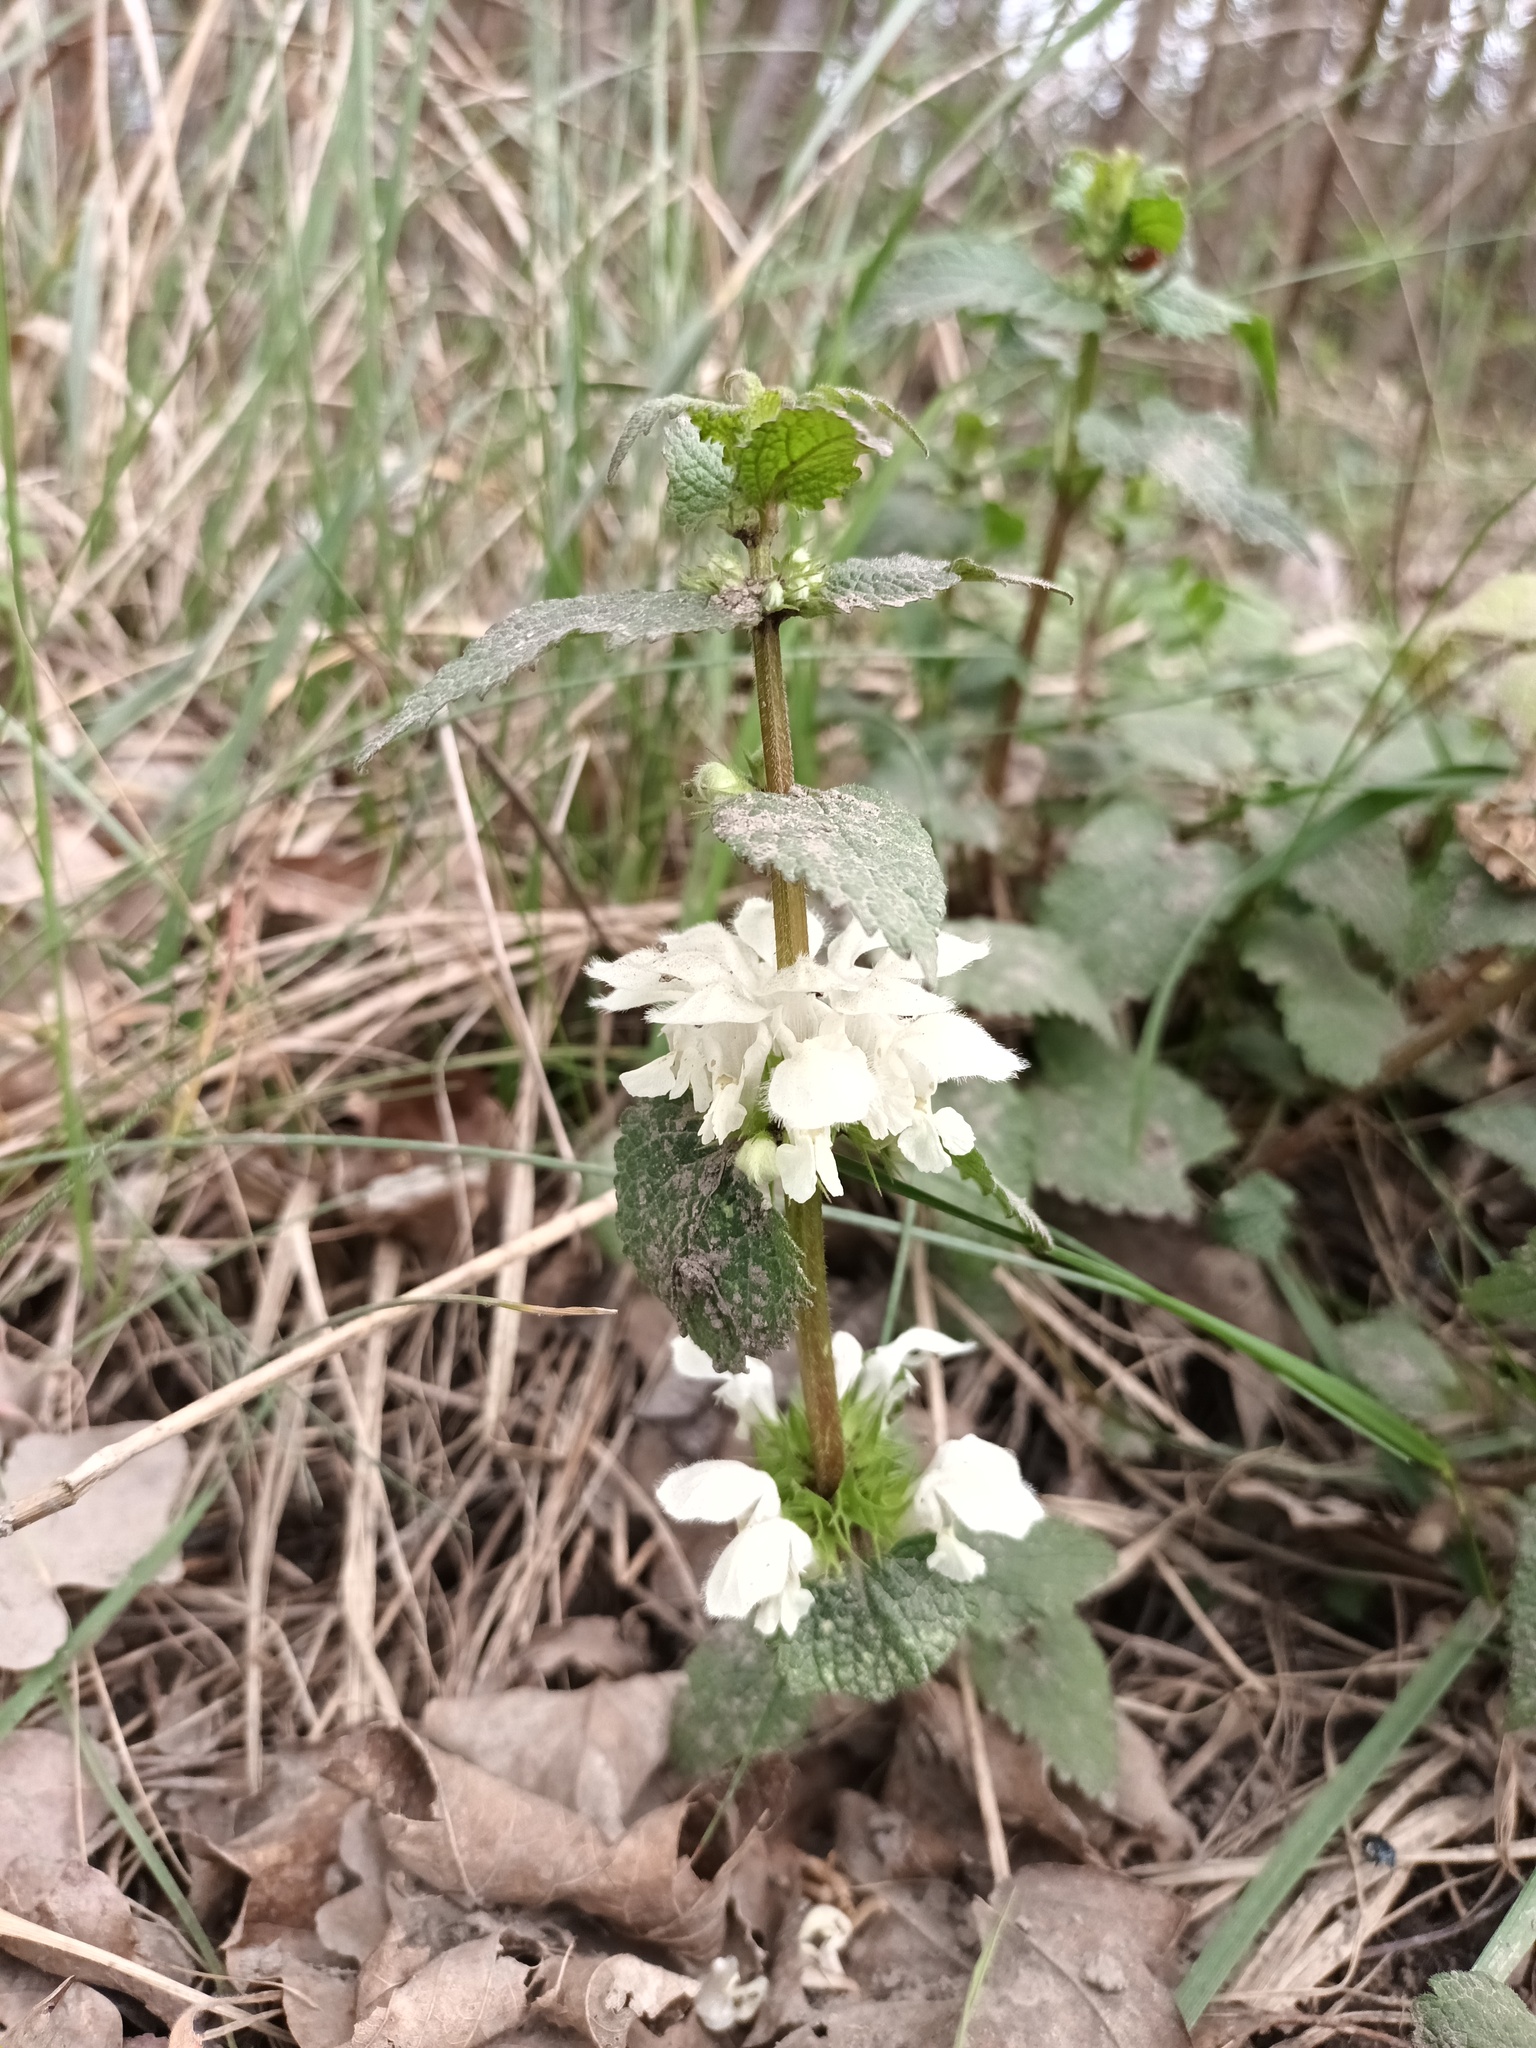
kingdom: Plantae
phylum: Tracheophyta
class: Magnoliopsida
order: Lamiales
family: Lamiaceae
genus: Lamium
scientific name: Lamium album
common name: White dead-nettle
